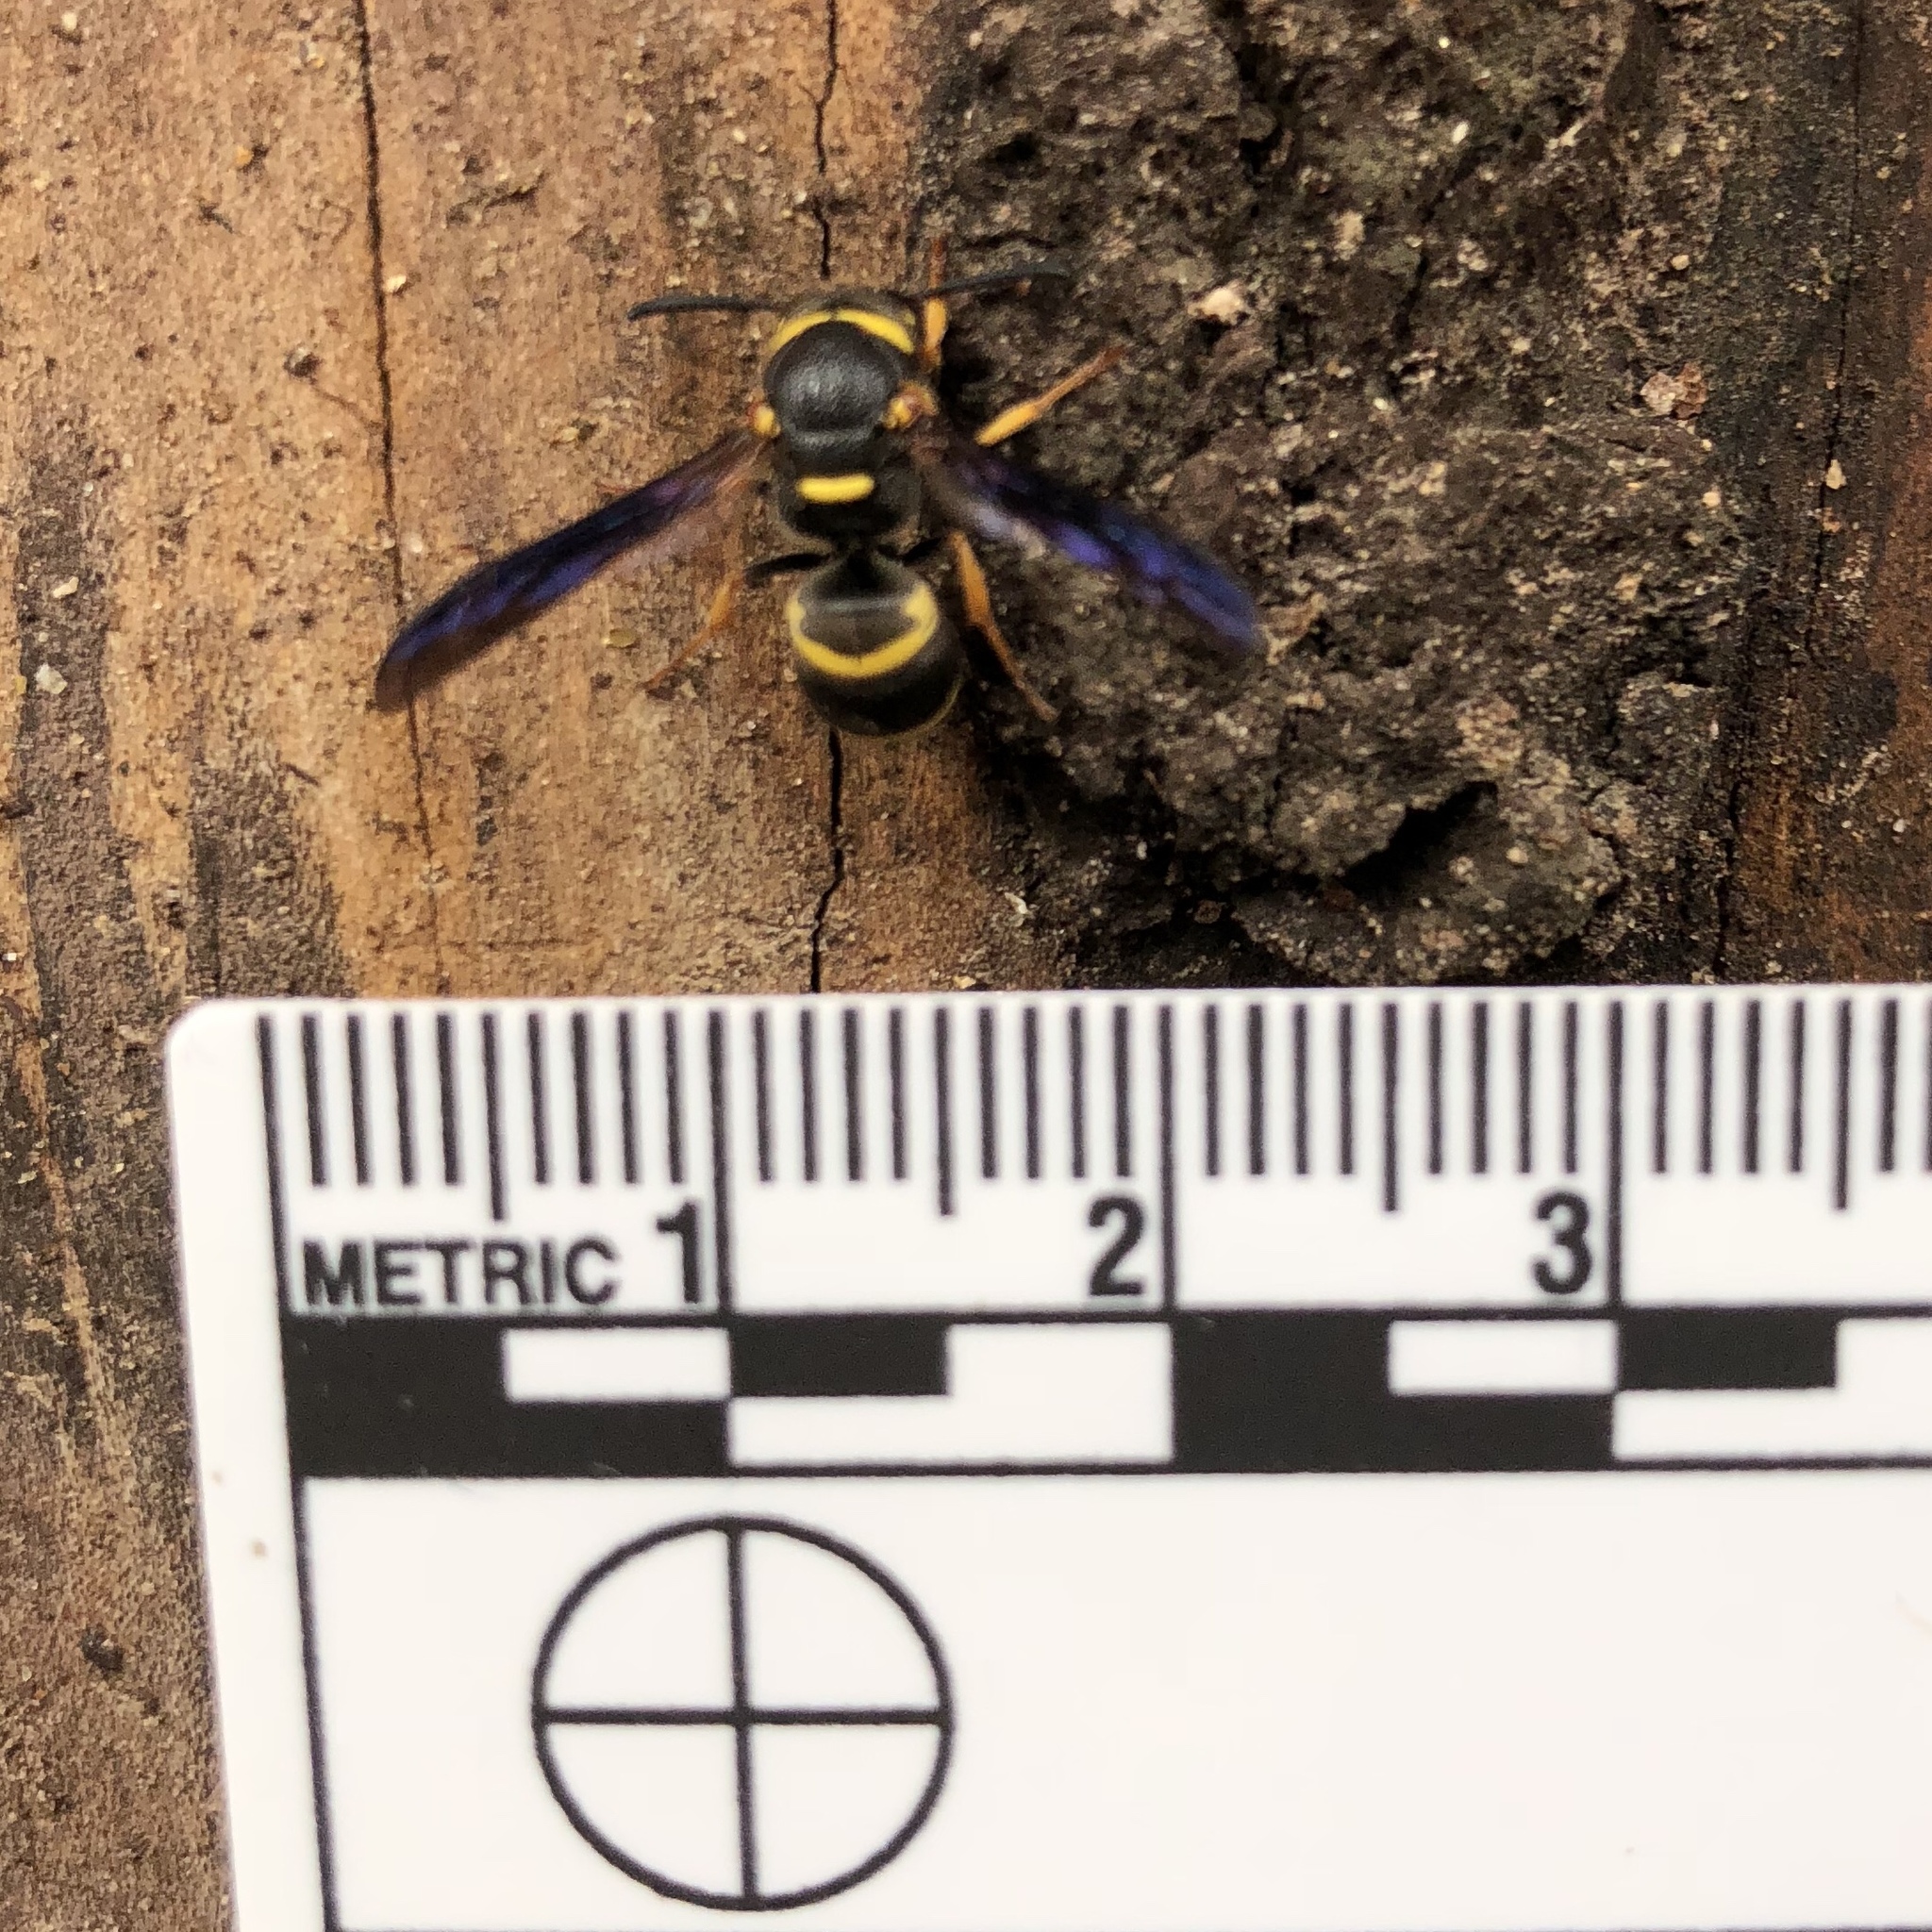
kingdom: Animalia
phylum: Arthropoda
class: Insecta
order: Hymenoptera
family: Eumenidae
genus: Euodynerus
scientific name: Euodynerus
